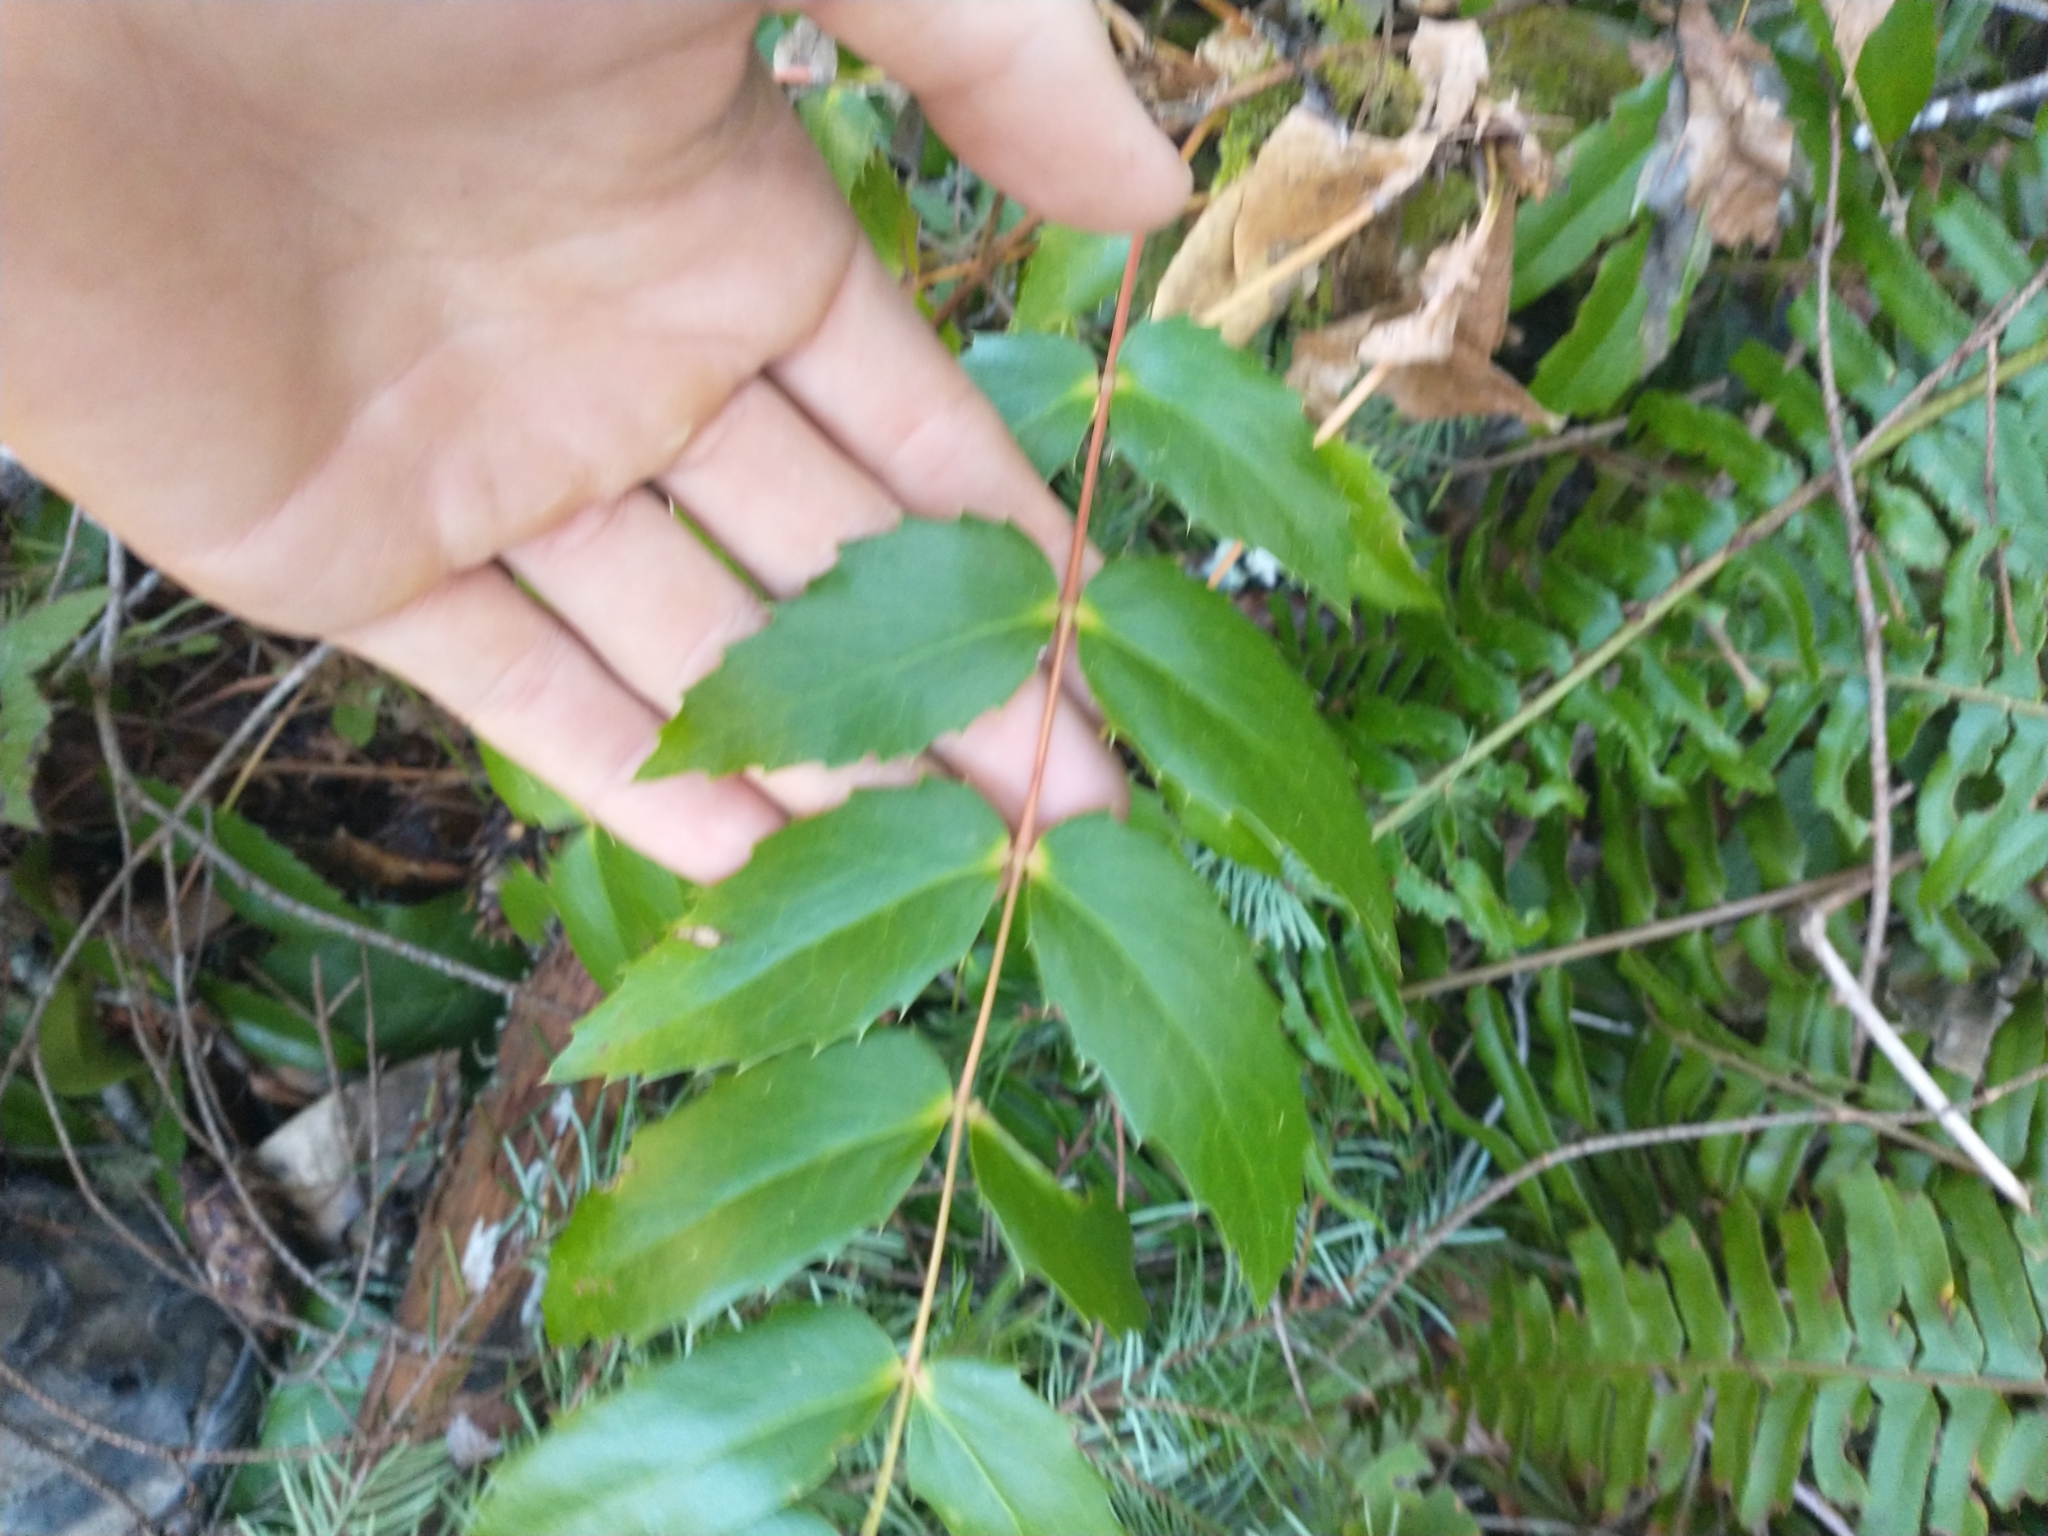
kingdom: Plantae
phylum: Tracheophyta
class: Magnoliopsida
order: Ranunculales
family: Berberidaceae
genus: Mahonia
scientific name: Mahonia nervosa
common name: Cascade oregon-grape
